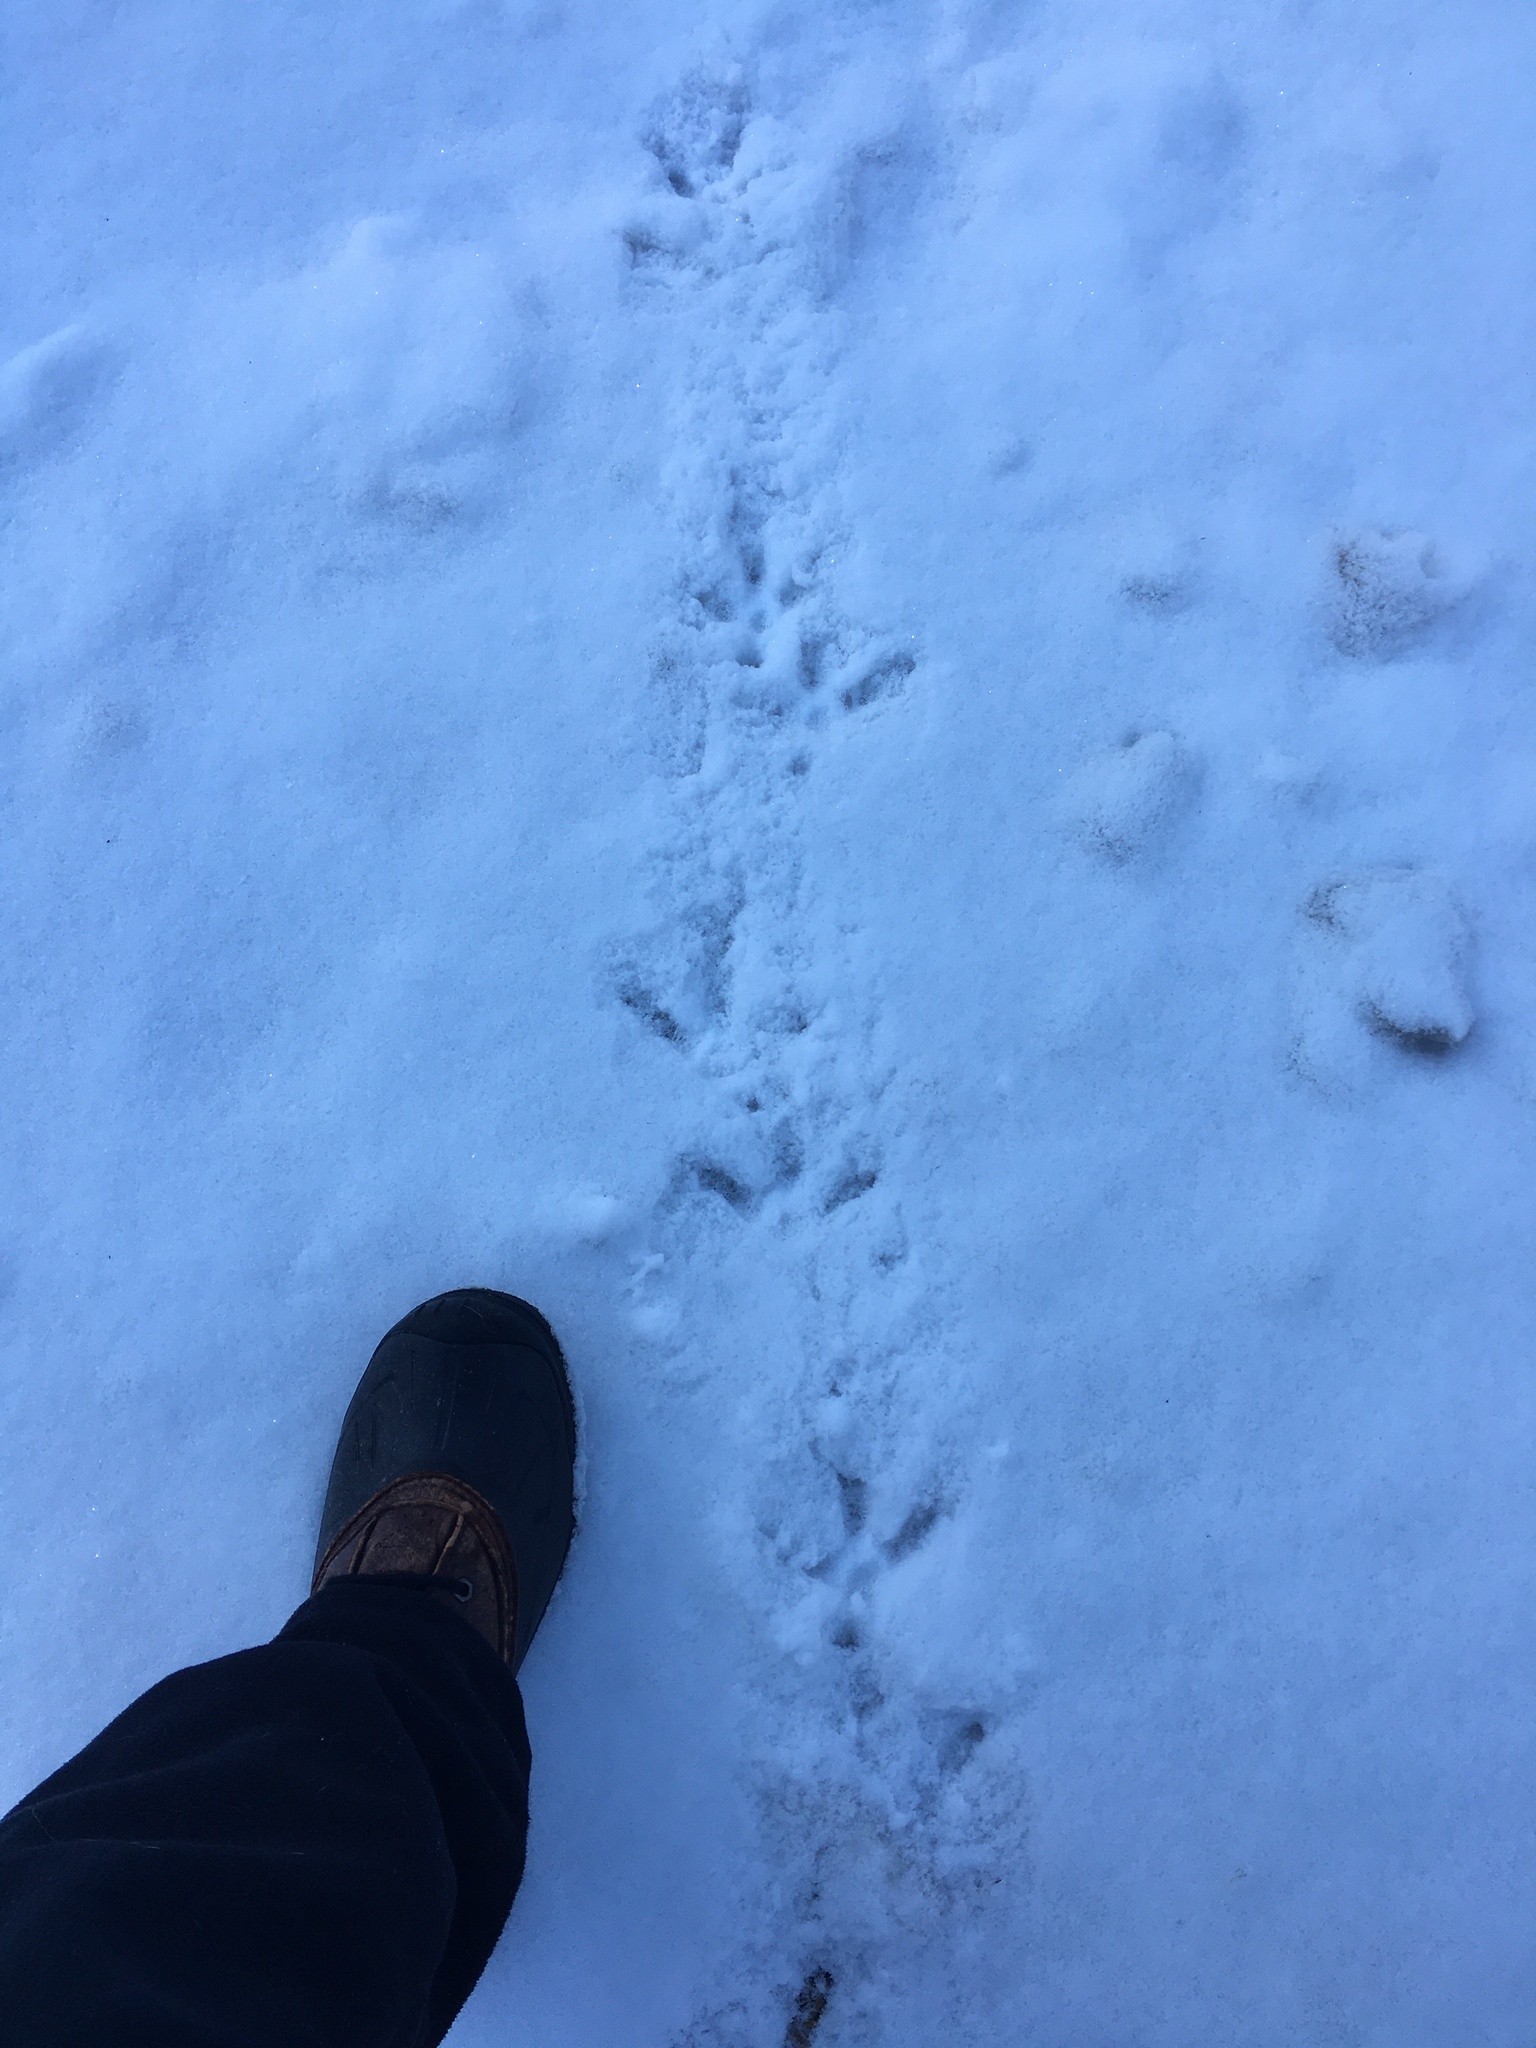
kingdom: Animalia
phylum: Chordata
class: Aves
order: Galliformes
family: Phasianidae
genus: Meleagris
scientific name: Meleagris gallopavo
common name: Wild turkey
